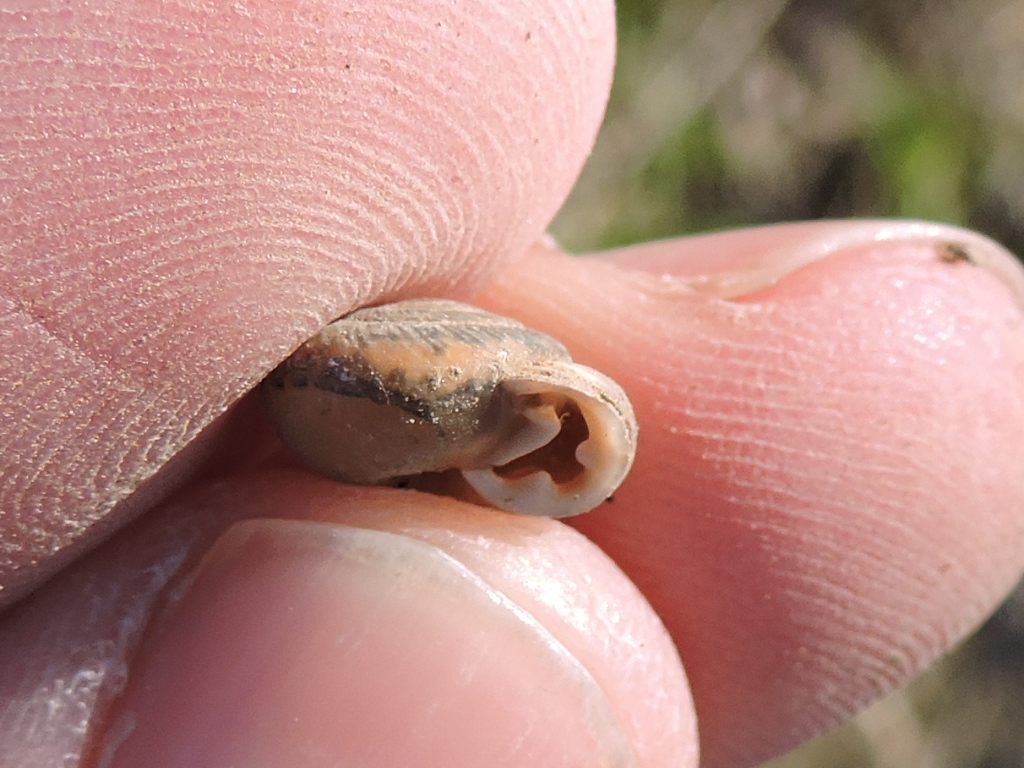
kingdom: Animalia
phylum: Mollusca
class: Gastropoda
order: Stylommatophora
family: Polygyridae
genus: Linisa
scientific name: Linisa texasiana
